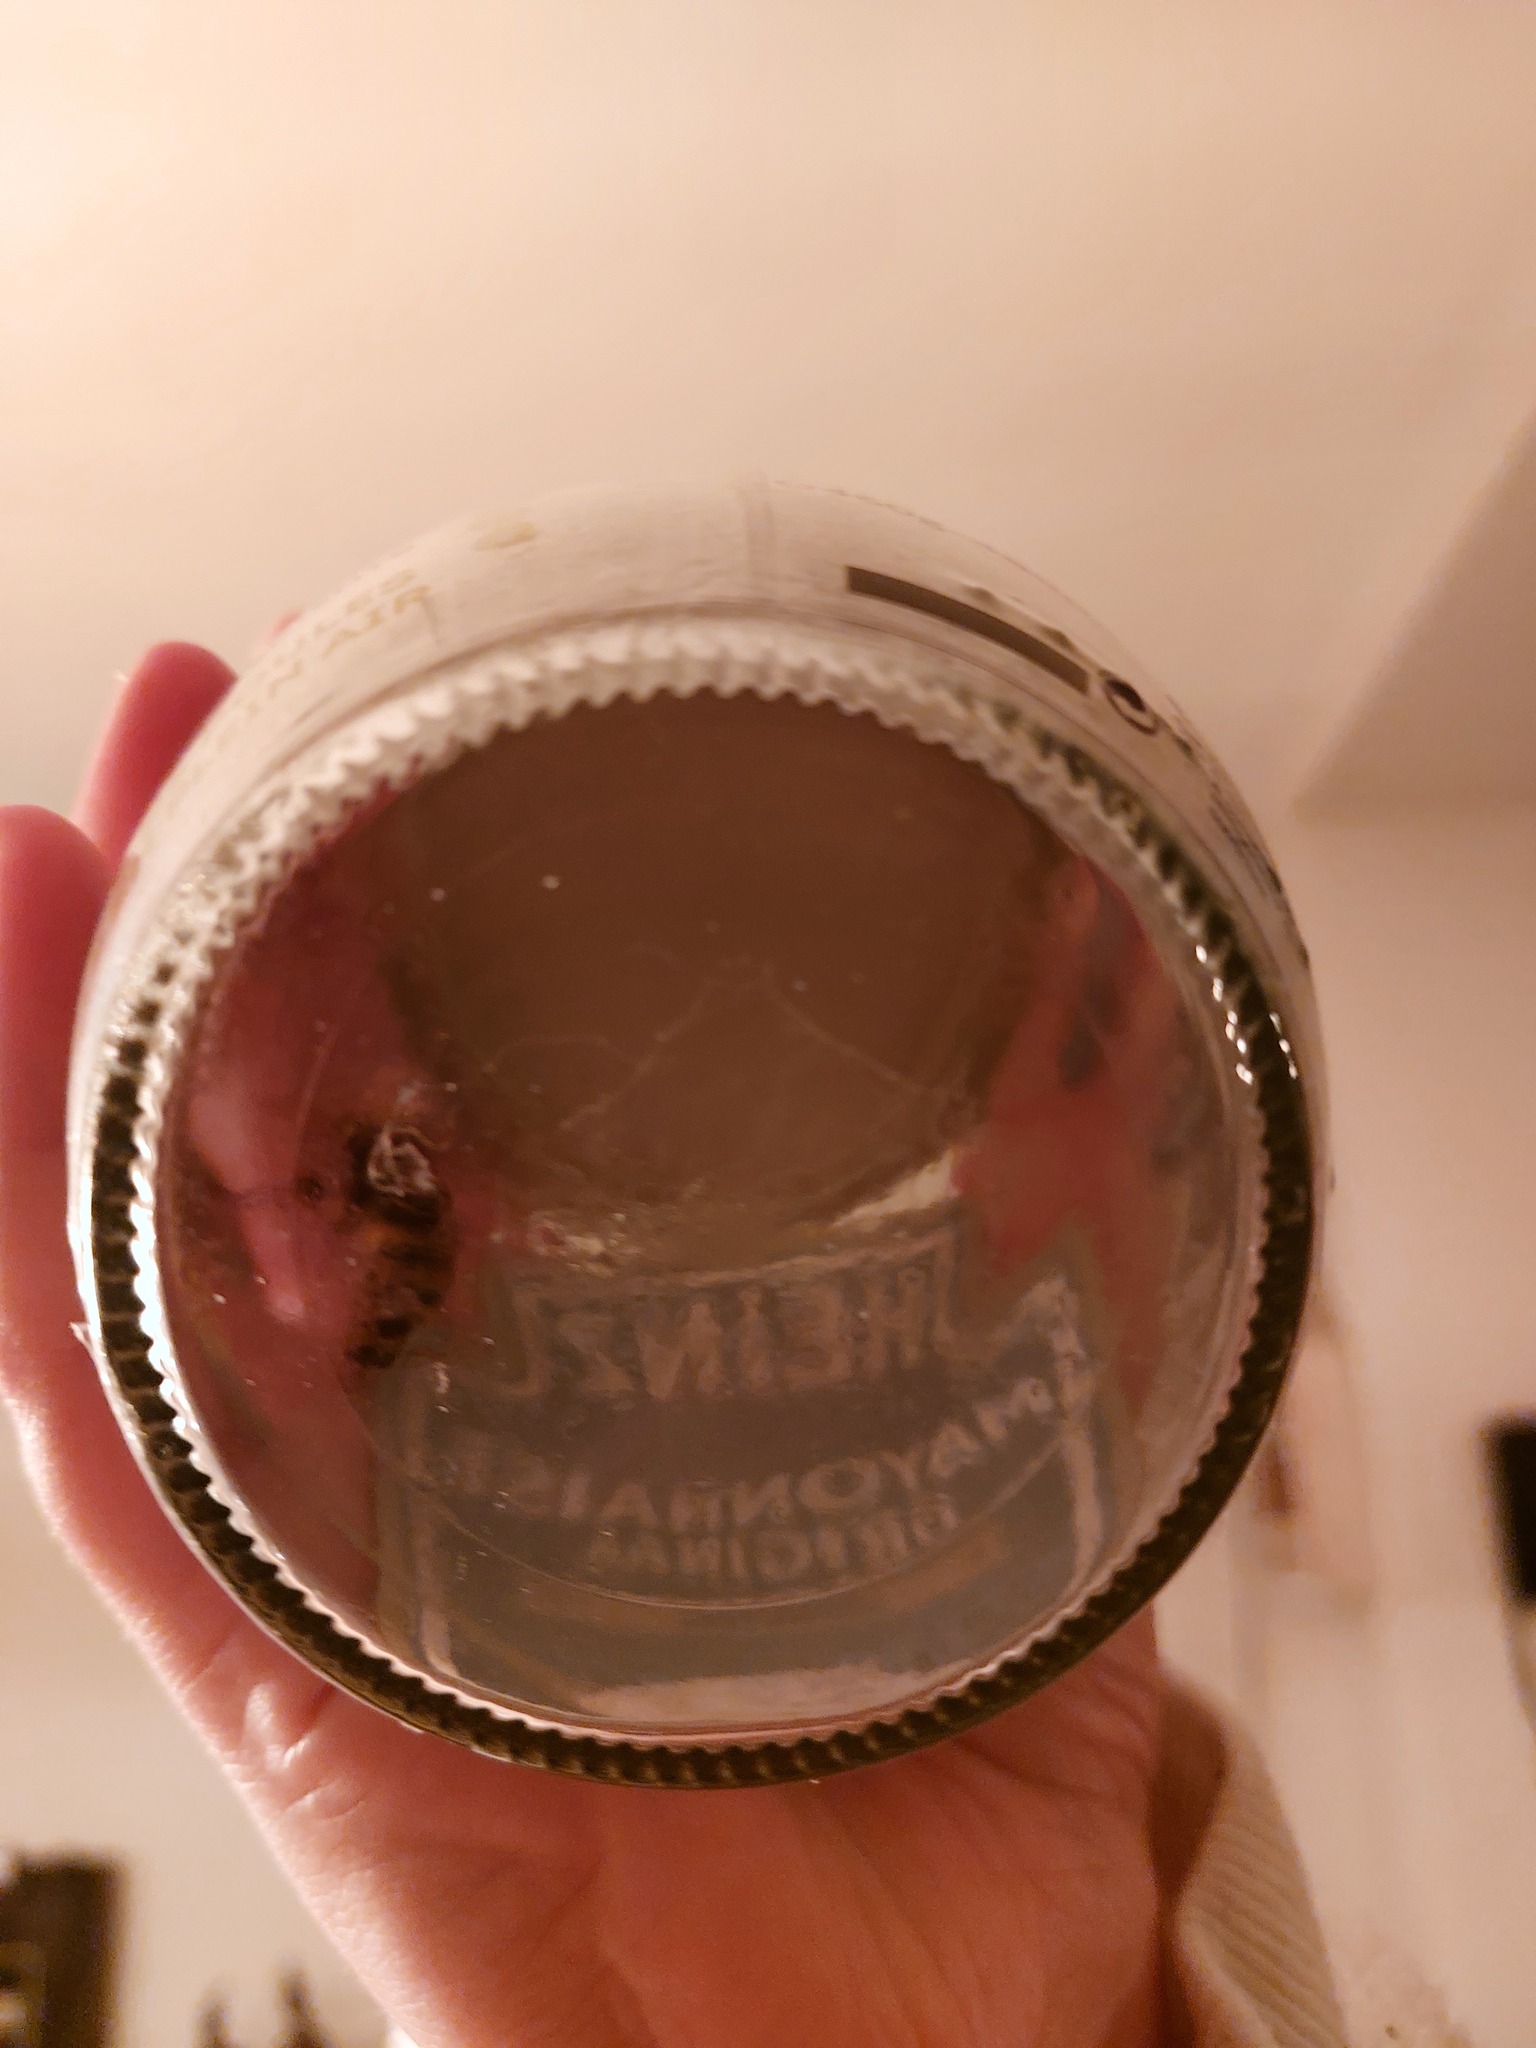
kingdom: Animalia
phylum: Arthropoda
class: Insecta
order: Hymenoptera
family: Vespidae
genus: Vespa
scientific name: Vespa crabro
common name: Hornet
